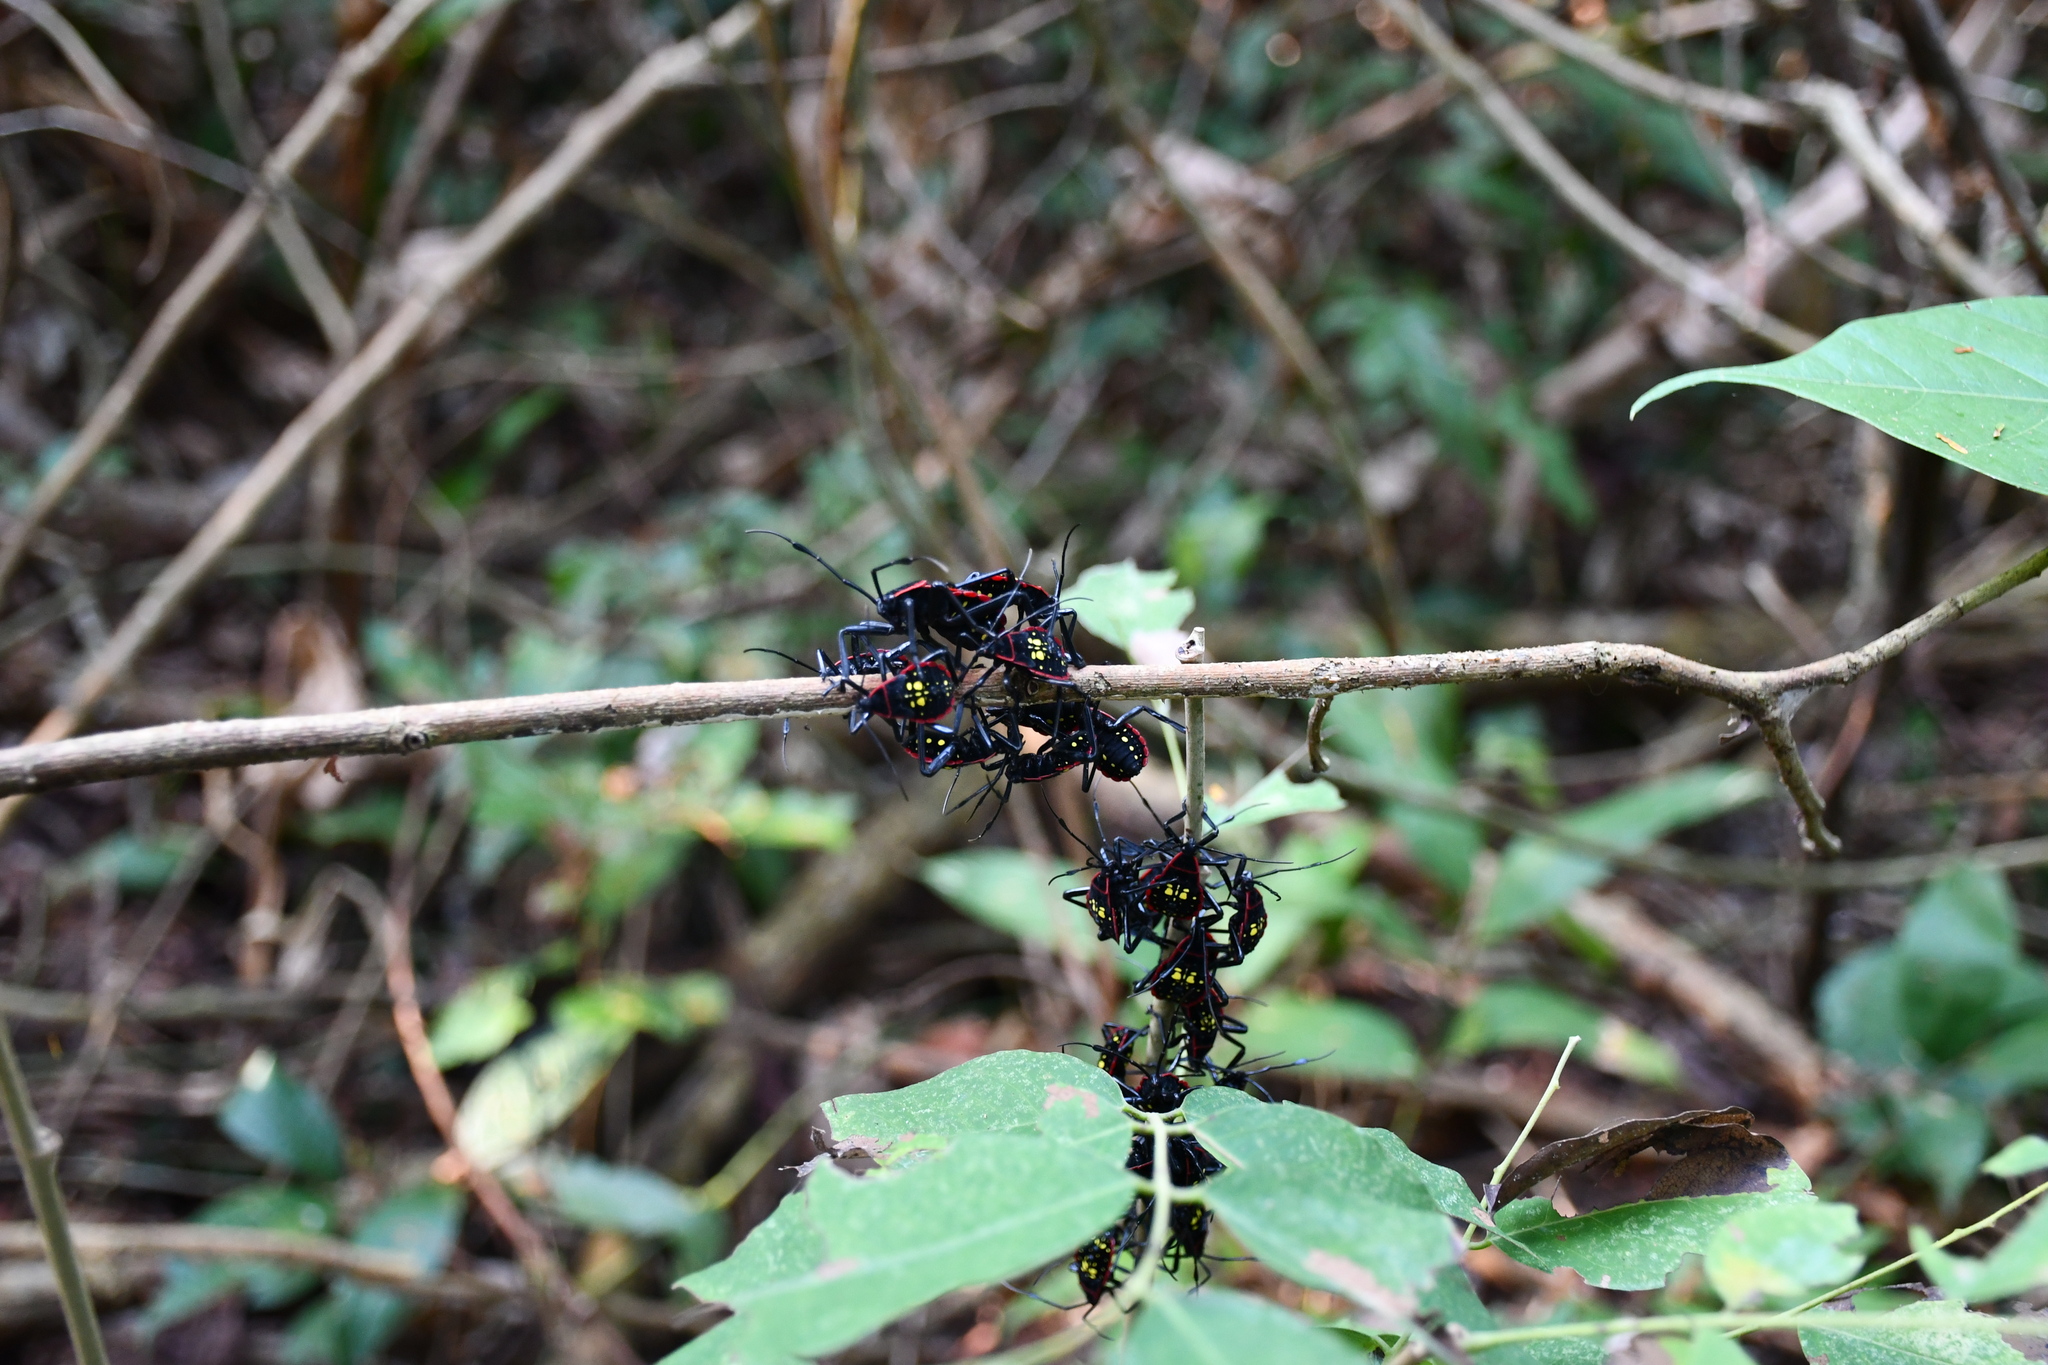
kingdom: Animalia
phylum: Arthropoda
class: Insecta
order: Hemiptera
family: Coreidae
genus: Pachylis
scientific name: Pachylis pharaonis
